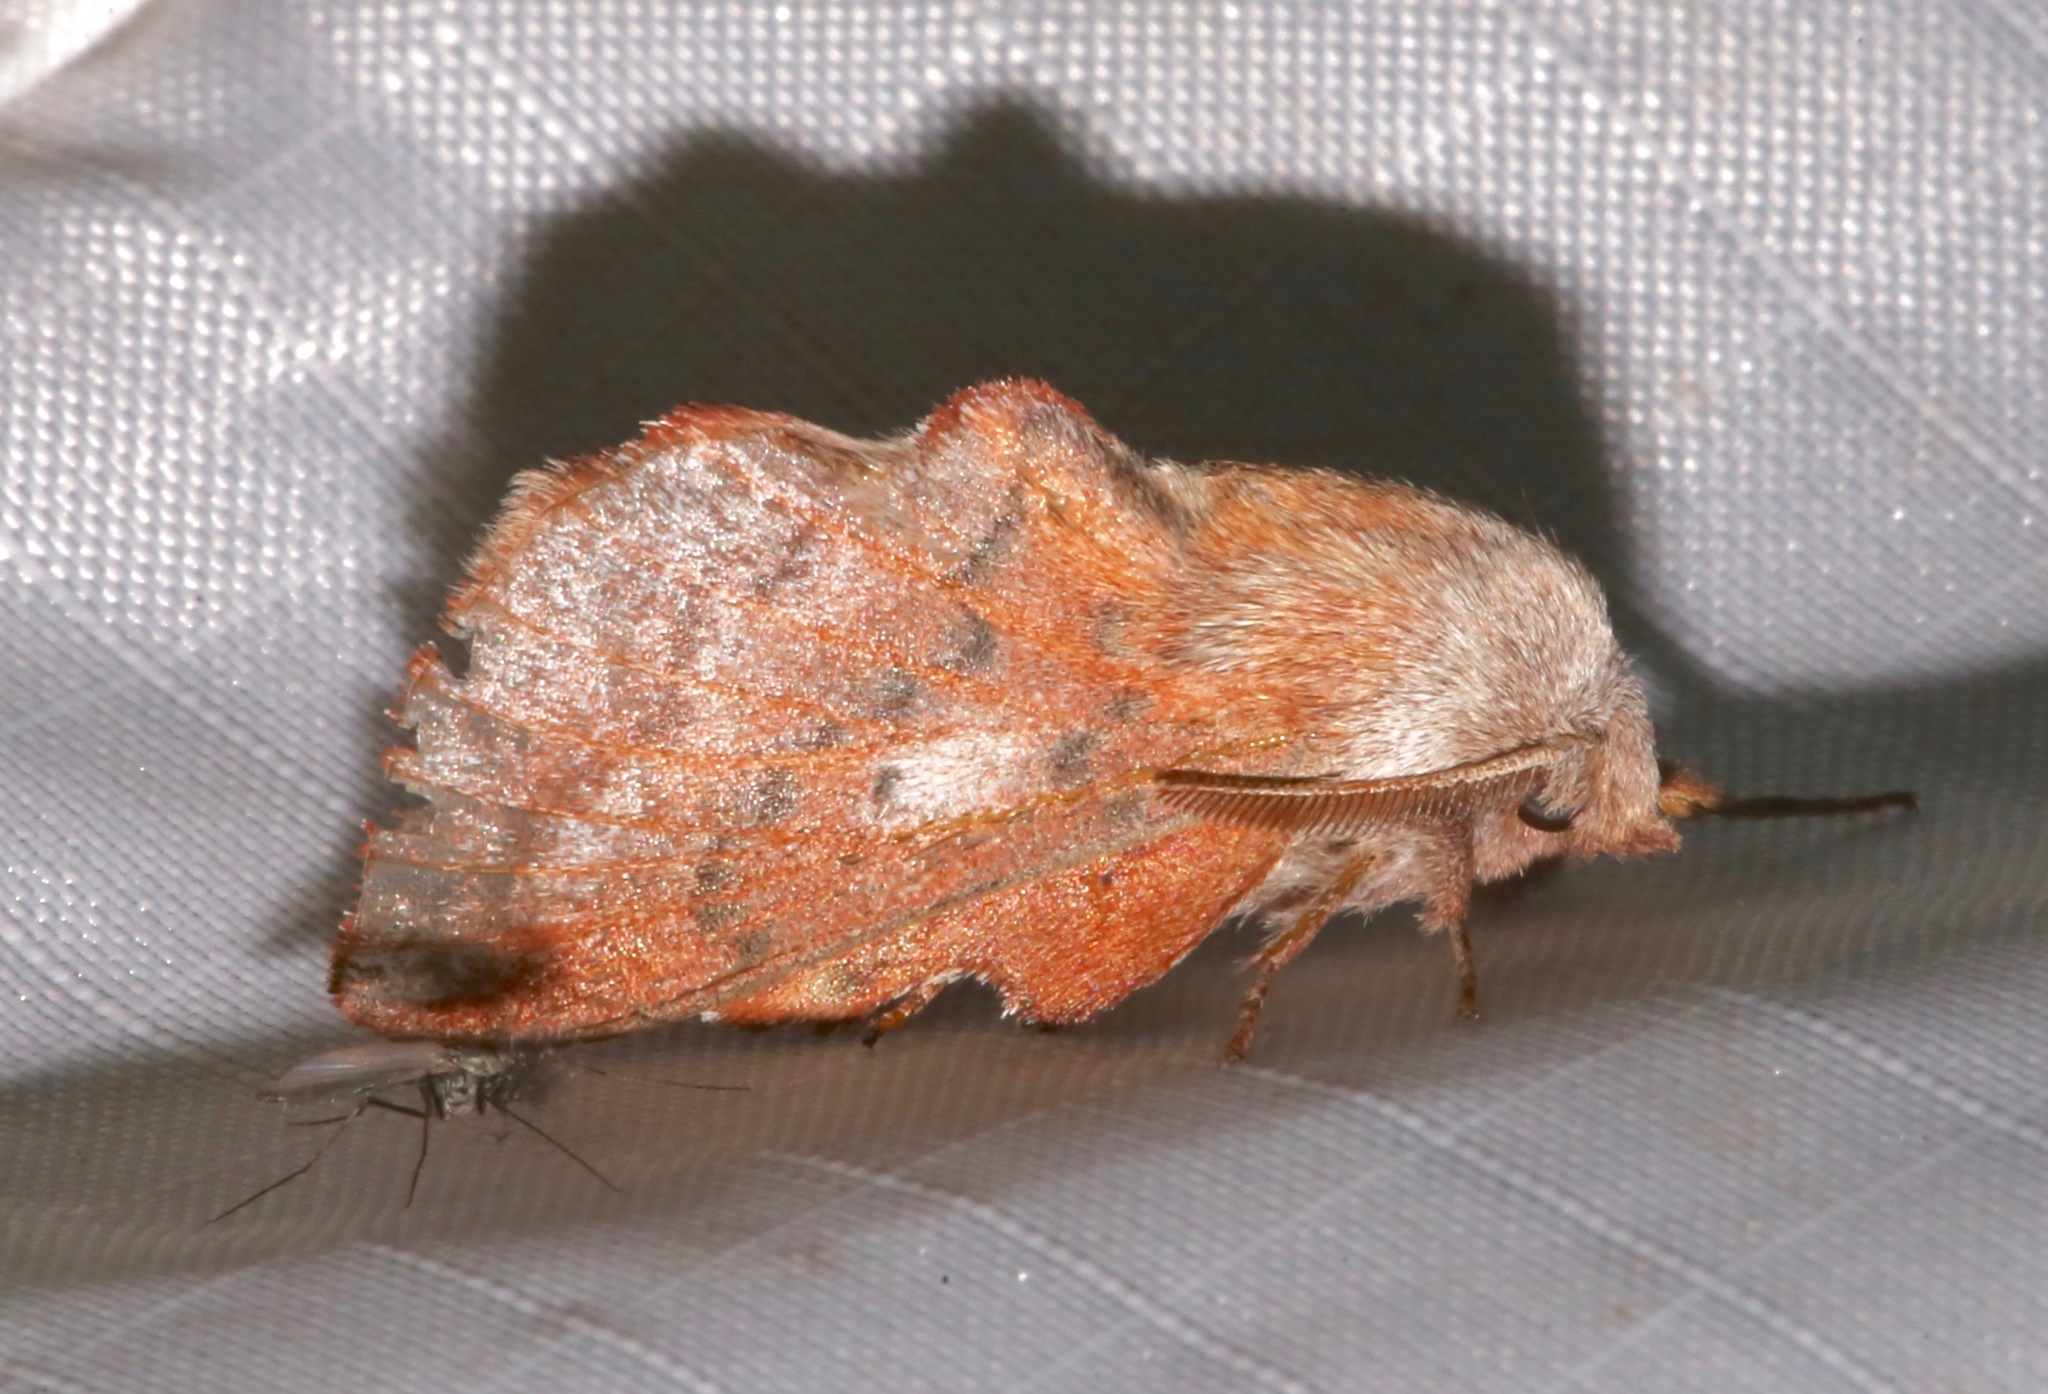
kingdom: Animalia
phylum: Arthropoda
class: Insecta
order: Lepidoptera
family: Lasiocampidae
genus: Phyllodesma
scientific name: Phyllodesma americana
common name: American lappet moth
